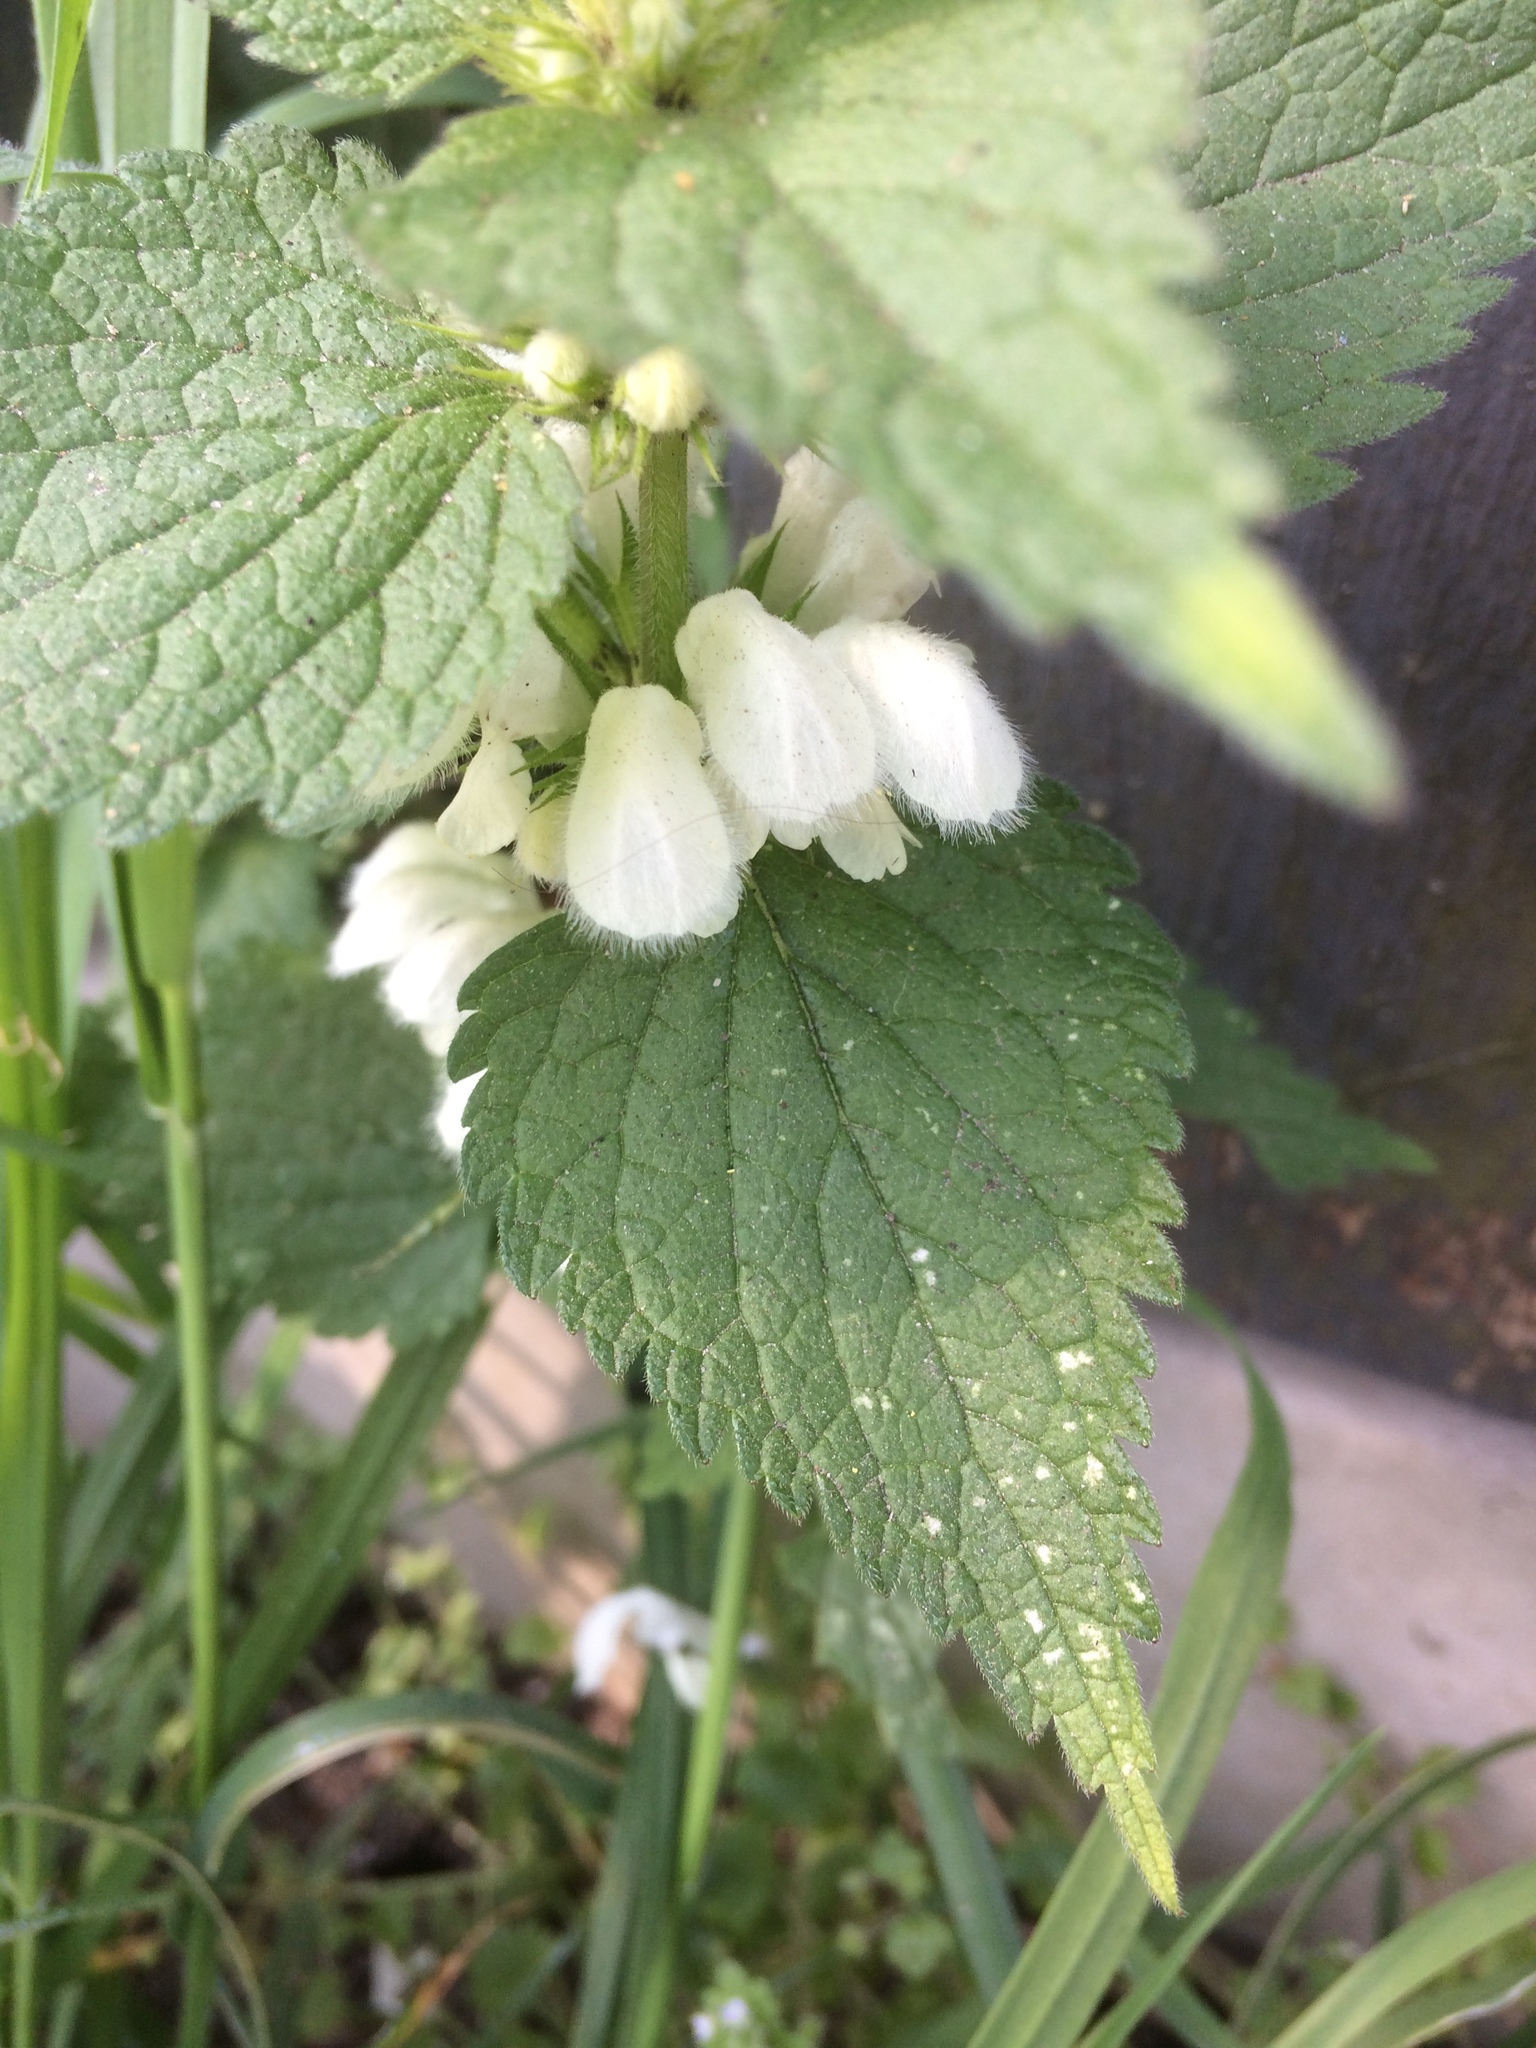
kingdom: Plantae
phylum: Tracheophyta
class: Magnoliopsida
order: Lamiales
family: Lamiaceae
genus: Lamium
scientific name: Lamium album
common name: White dead-nettle
